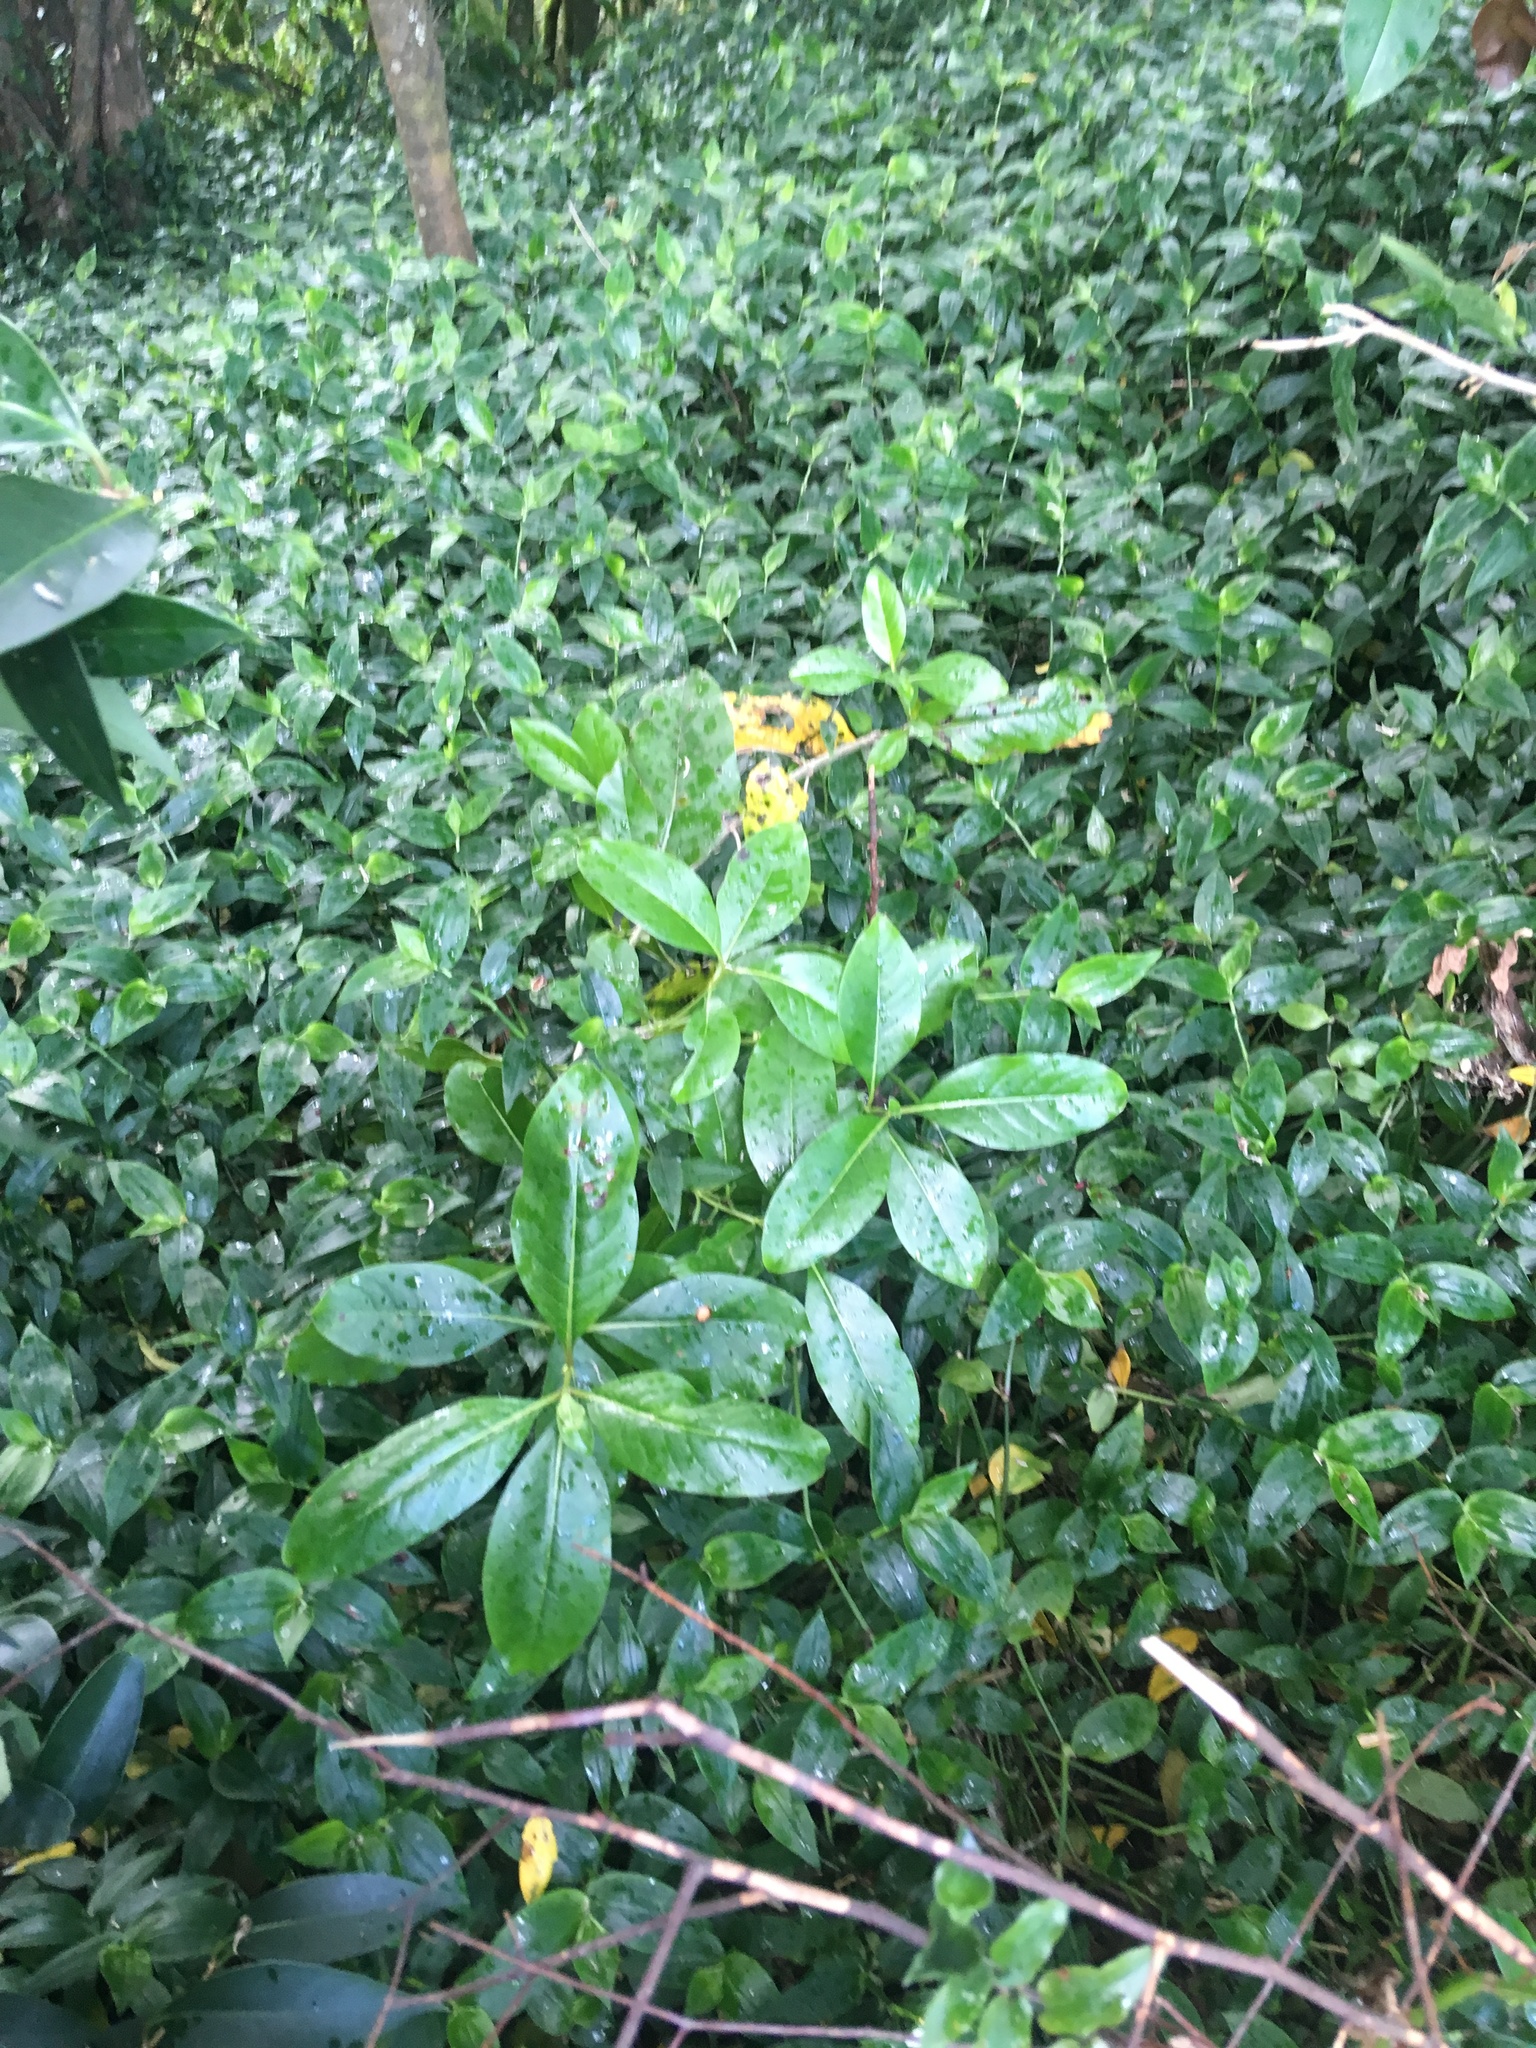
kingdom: Plantae
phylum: Tracheophyta
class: Liliopsida
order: Commelinales
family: Commelinaceae
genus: Tradescantia
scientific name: Tradescantia fluminensis
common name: Wandering-jew
